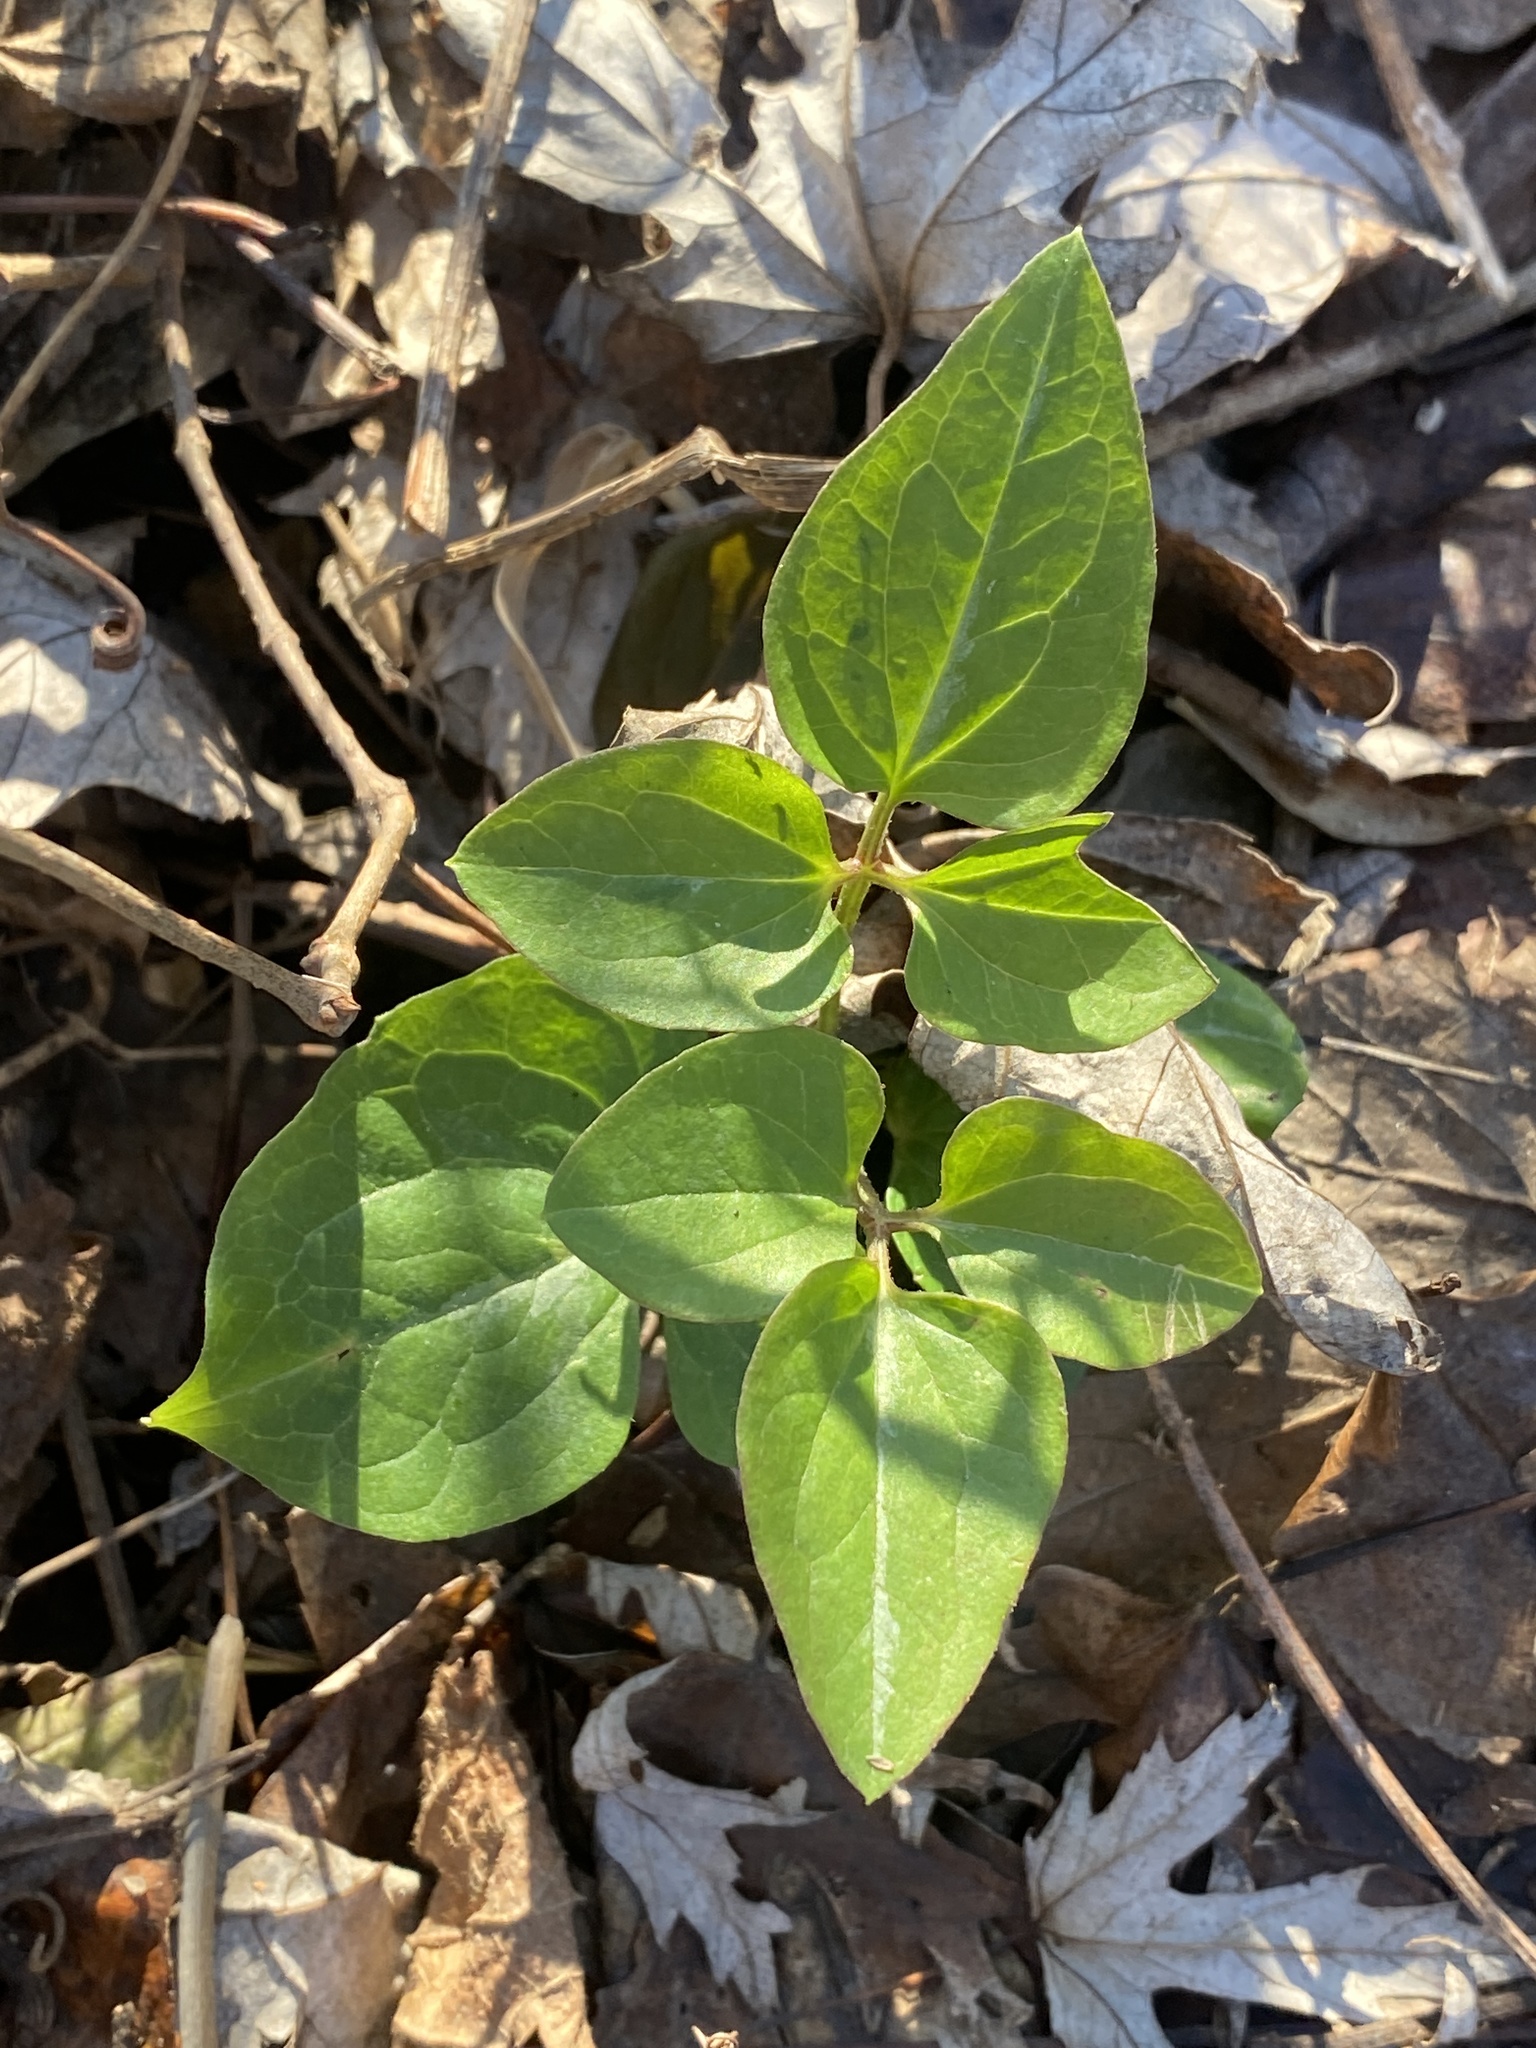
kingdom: Plantae
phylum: Tracheophyta
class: Magnoliopsida
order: Ranunculales
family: Ranunculaceae
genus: Clematis
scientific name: Clematis terniflora
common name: Sweet autumn clematis
